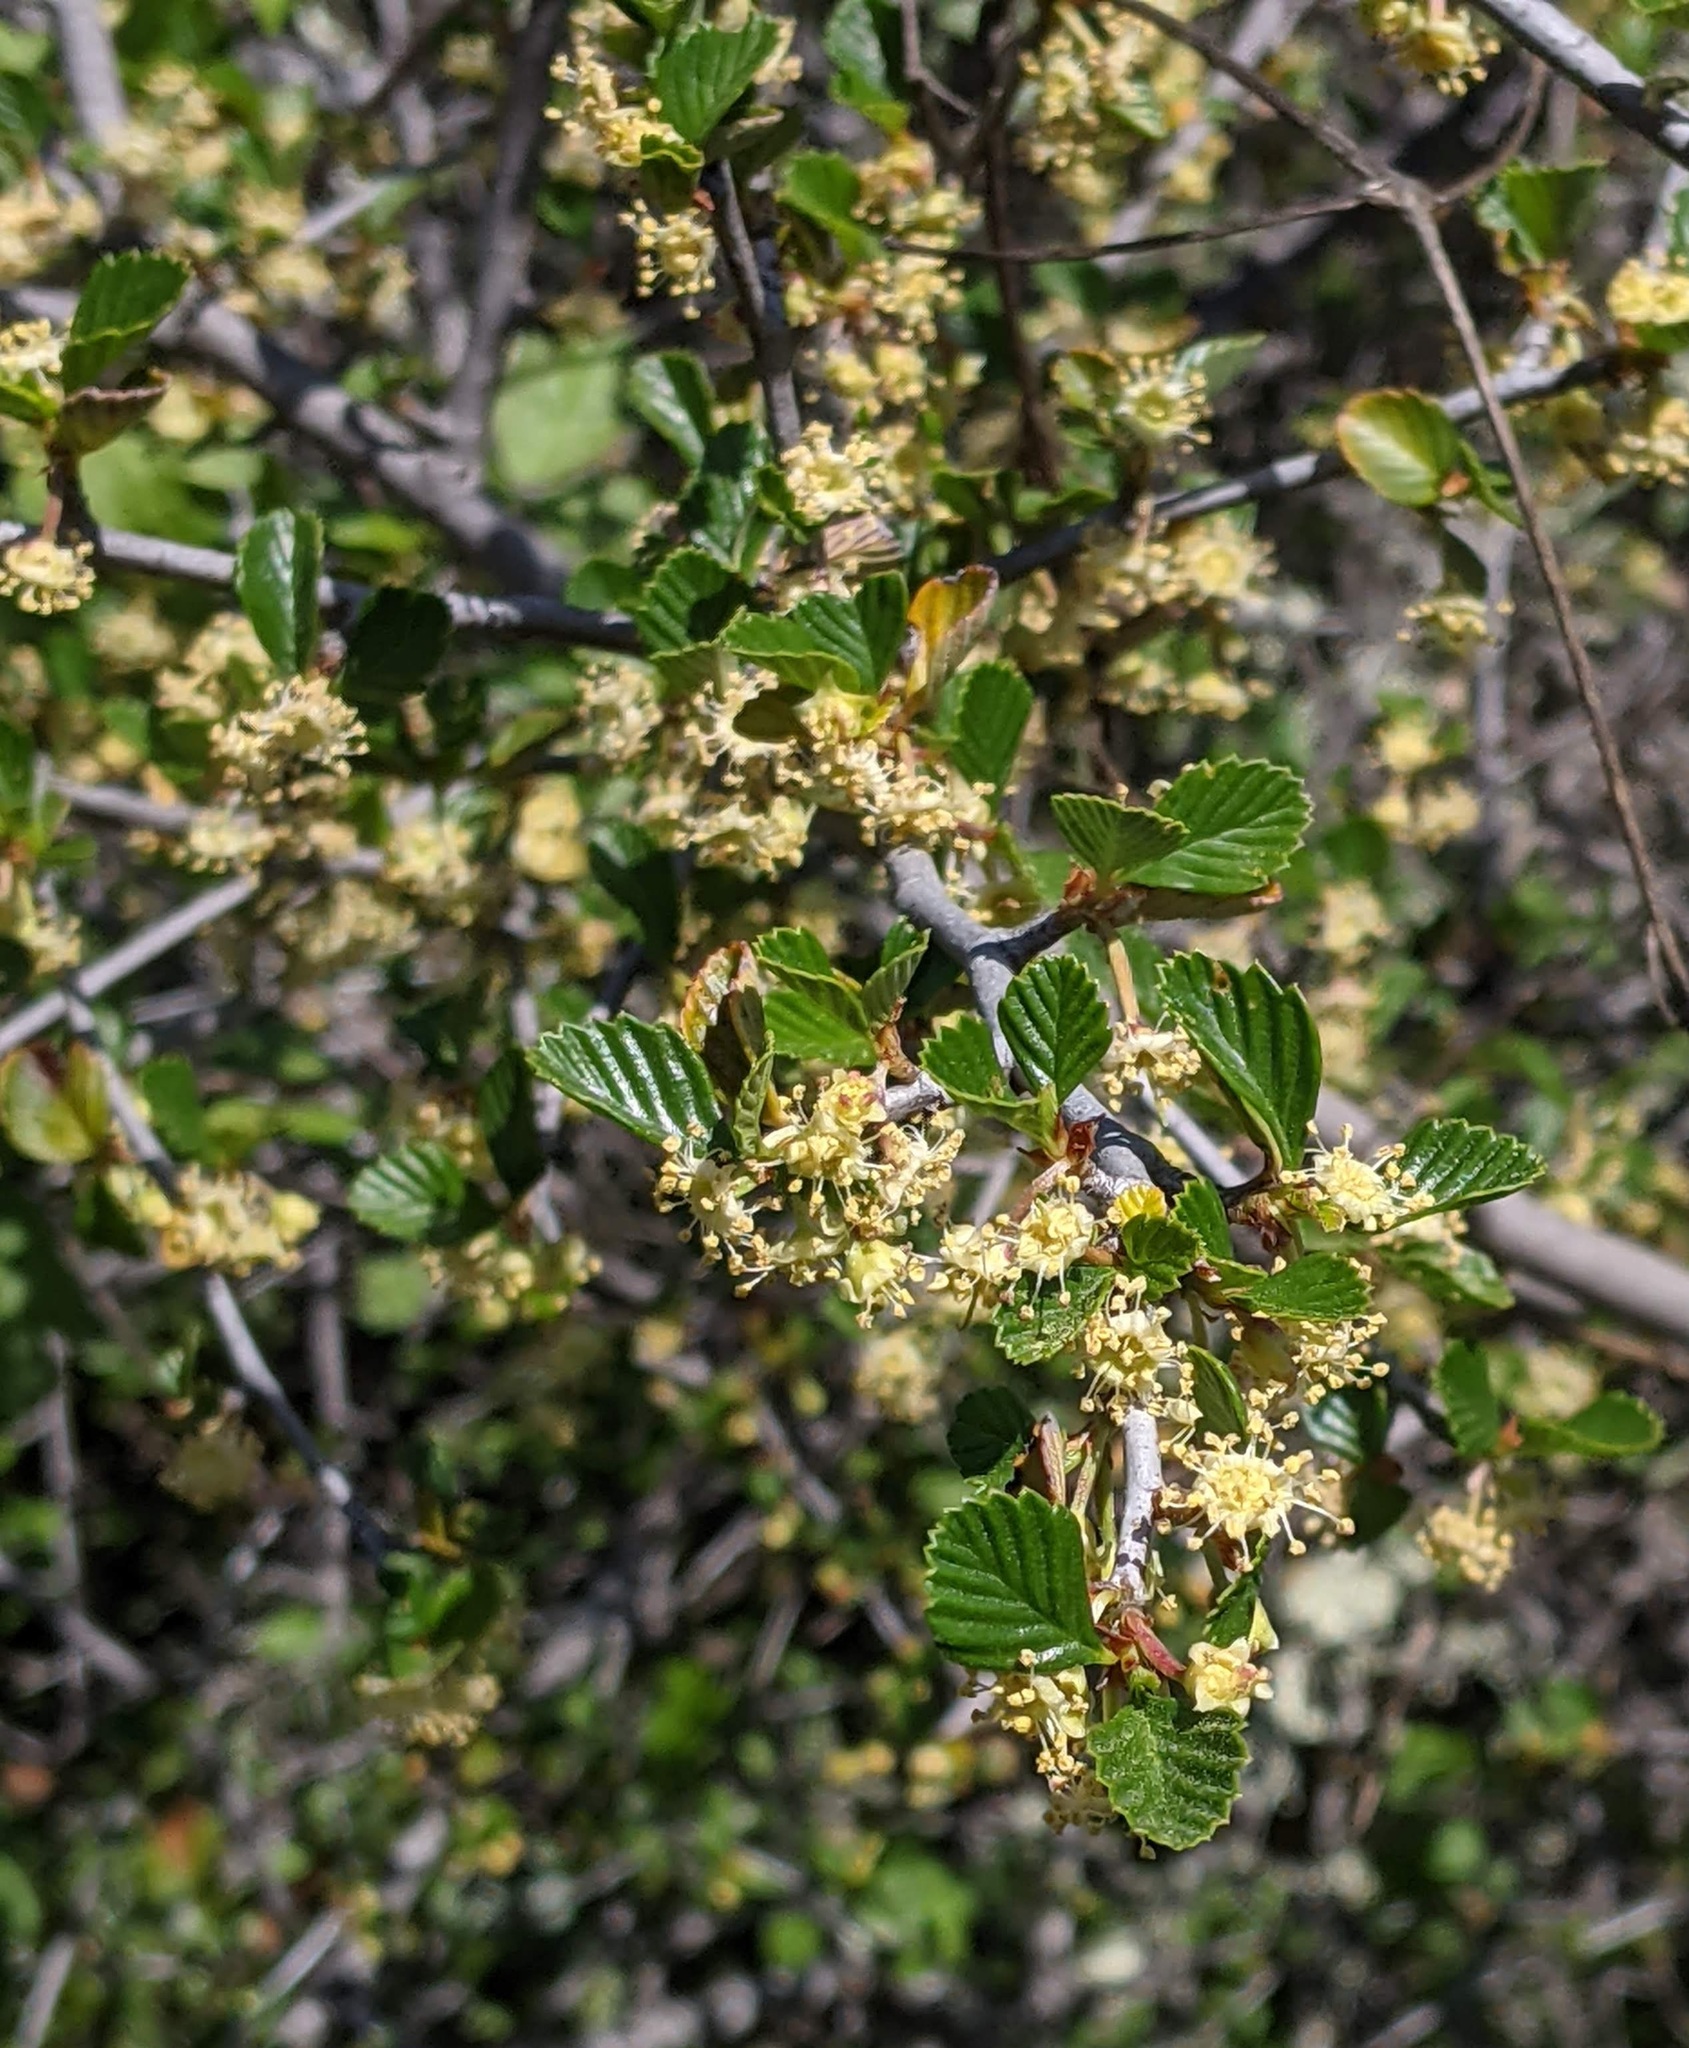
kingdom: Plantae
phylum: Tracheophyta
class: Magnoliopsida
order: Rosales
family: Rosaceae
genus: Cercocarpus
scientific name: Cercocarpus betuloides
